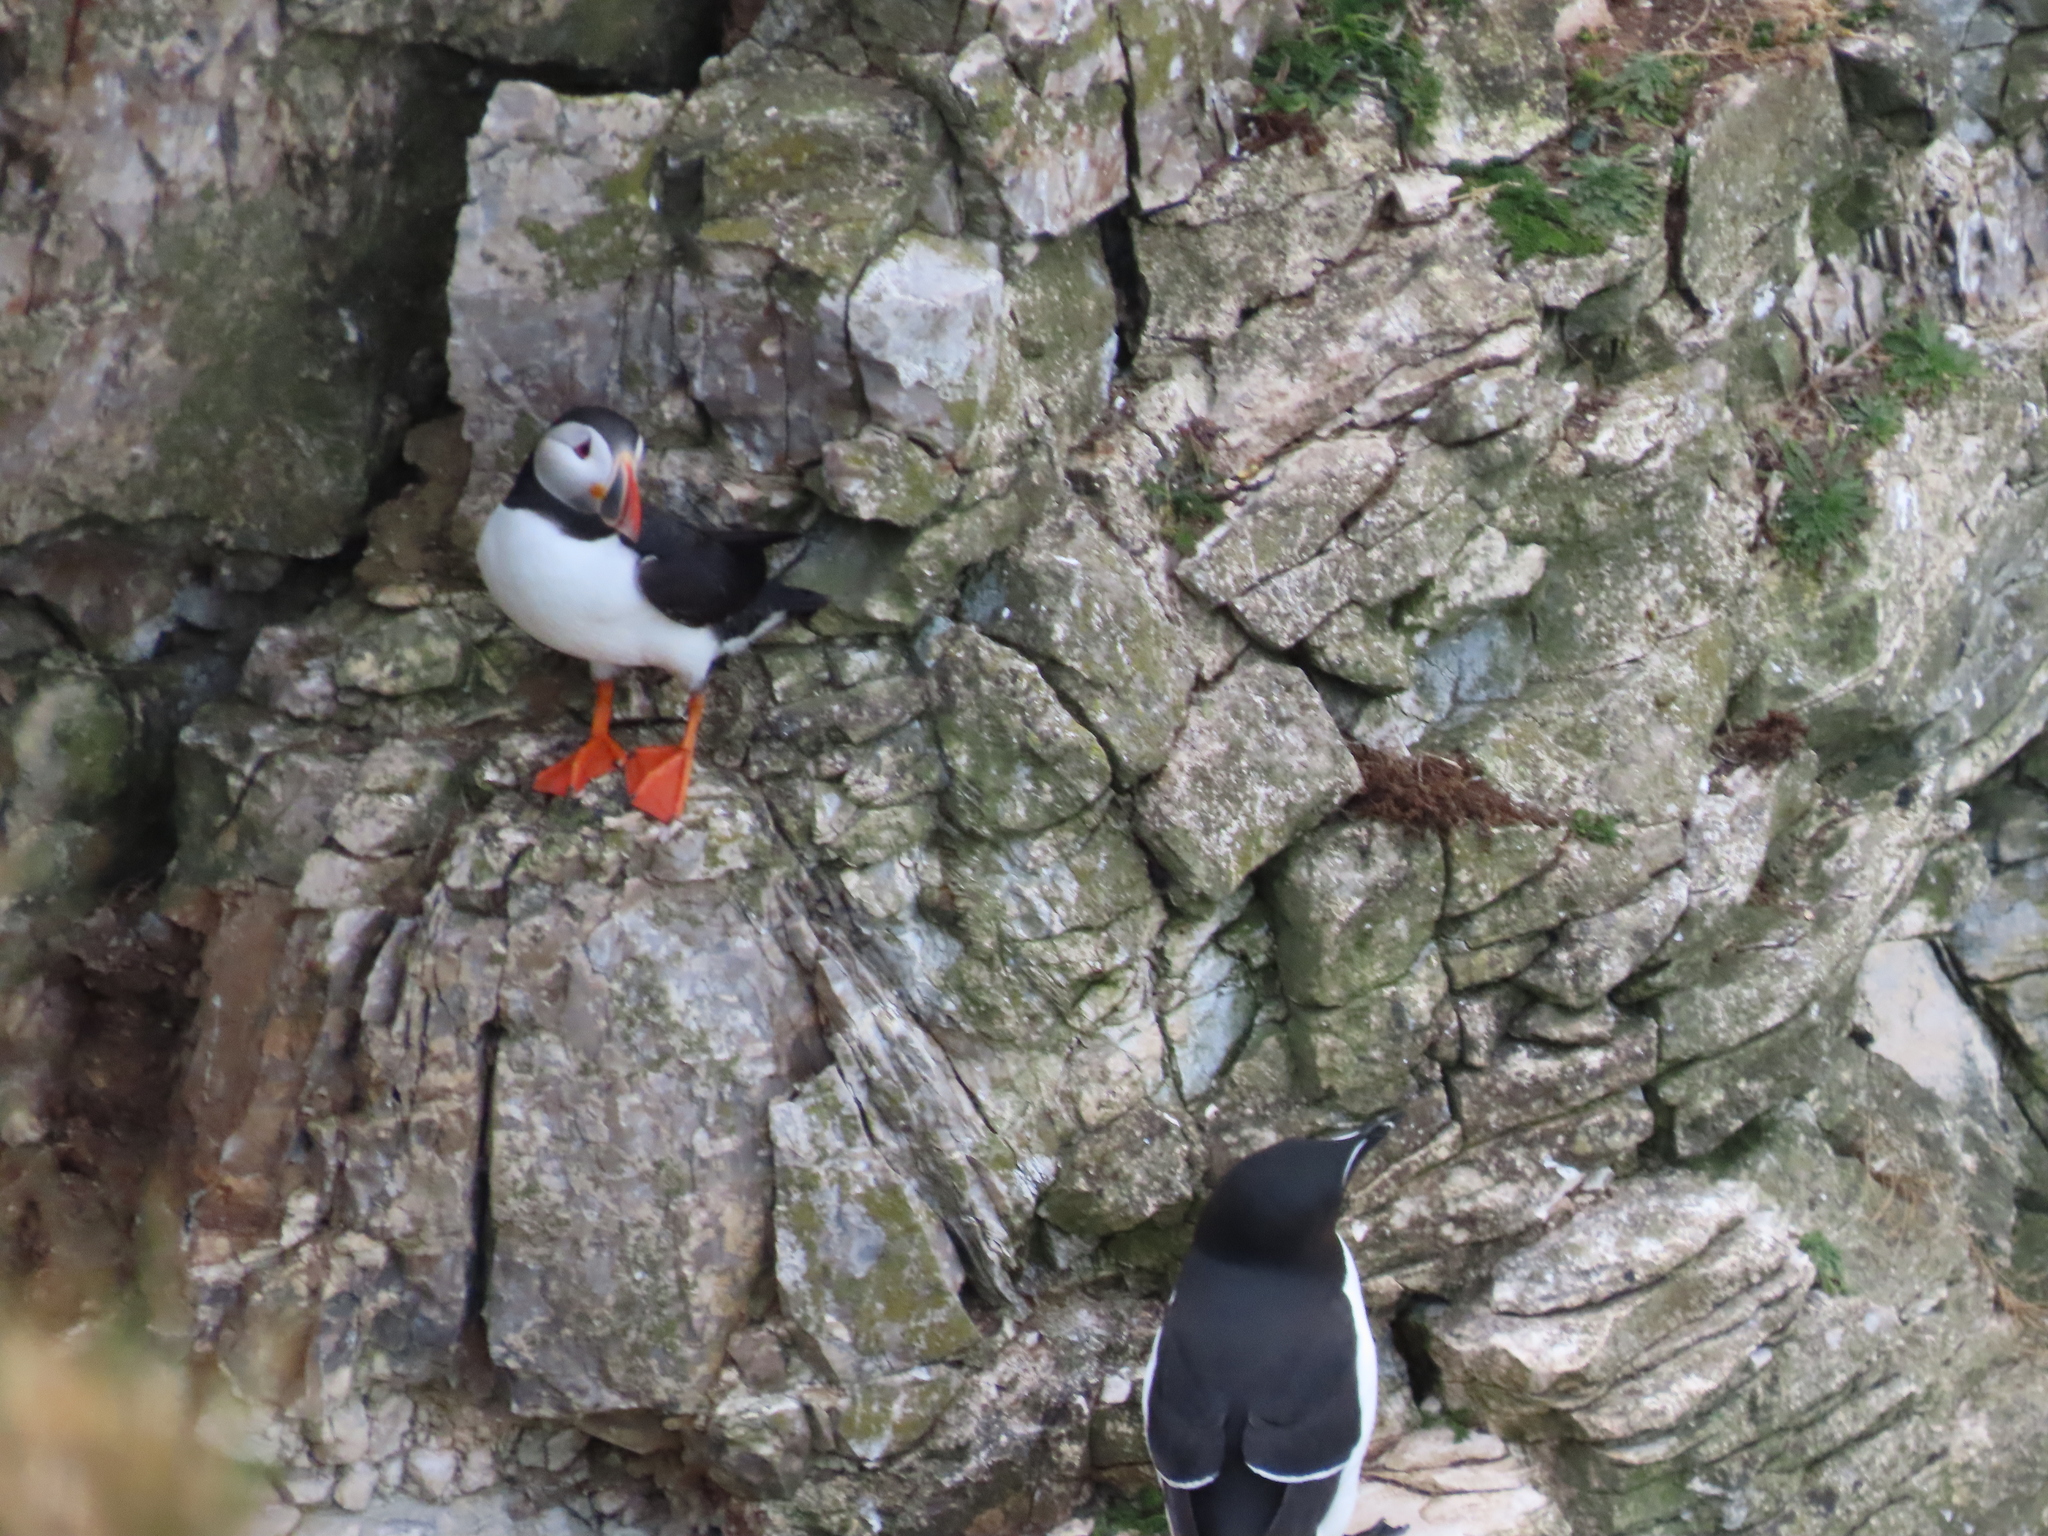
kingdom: Animalia
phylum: Chordata
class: Aves
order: Charadriiformes
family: Alcidae
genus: Fratercula
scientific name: Fratercula arctica
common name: Atlantic puffin
